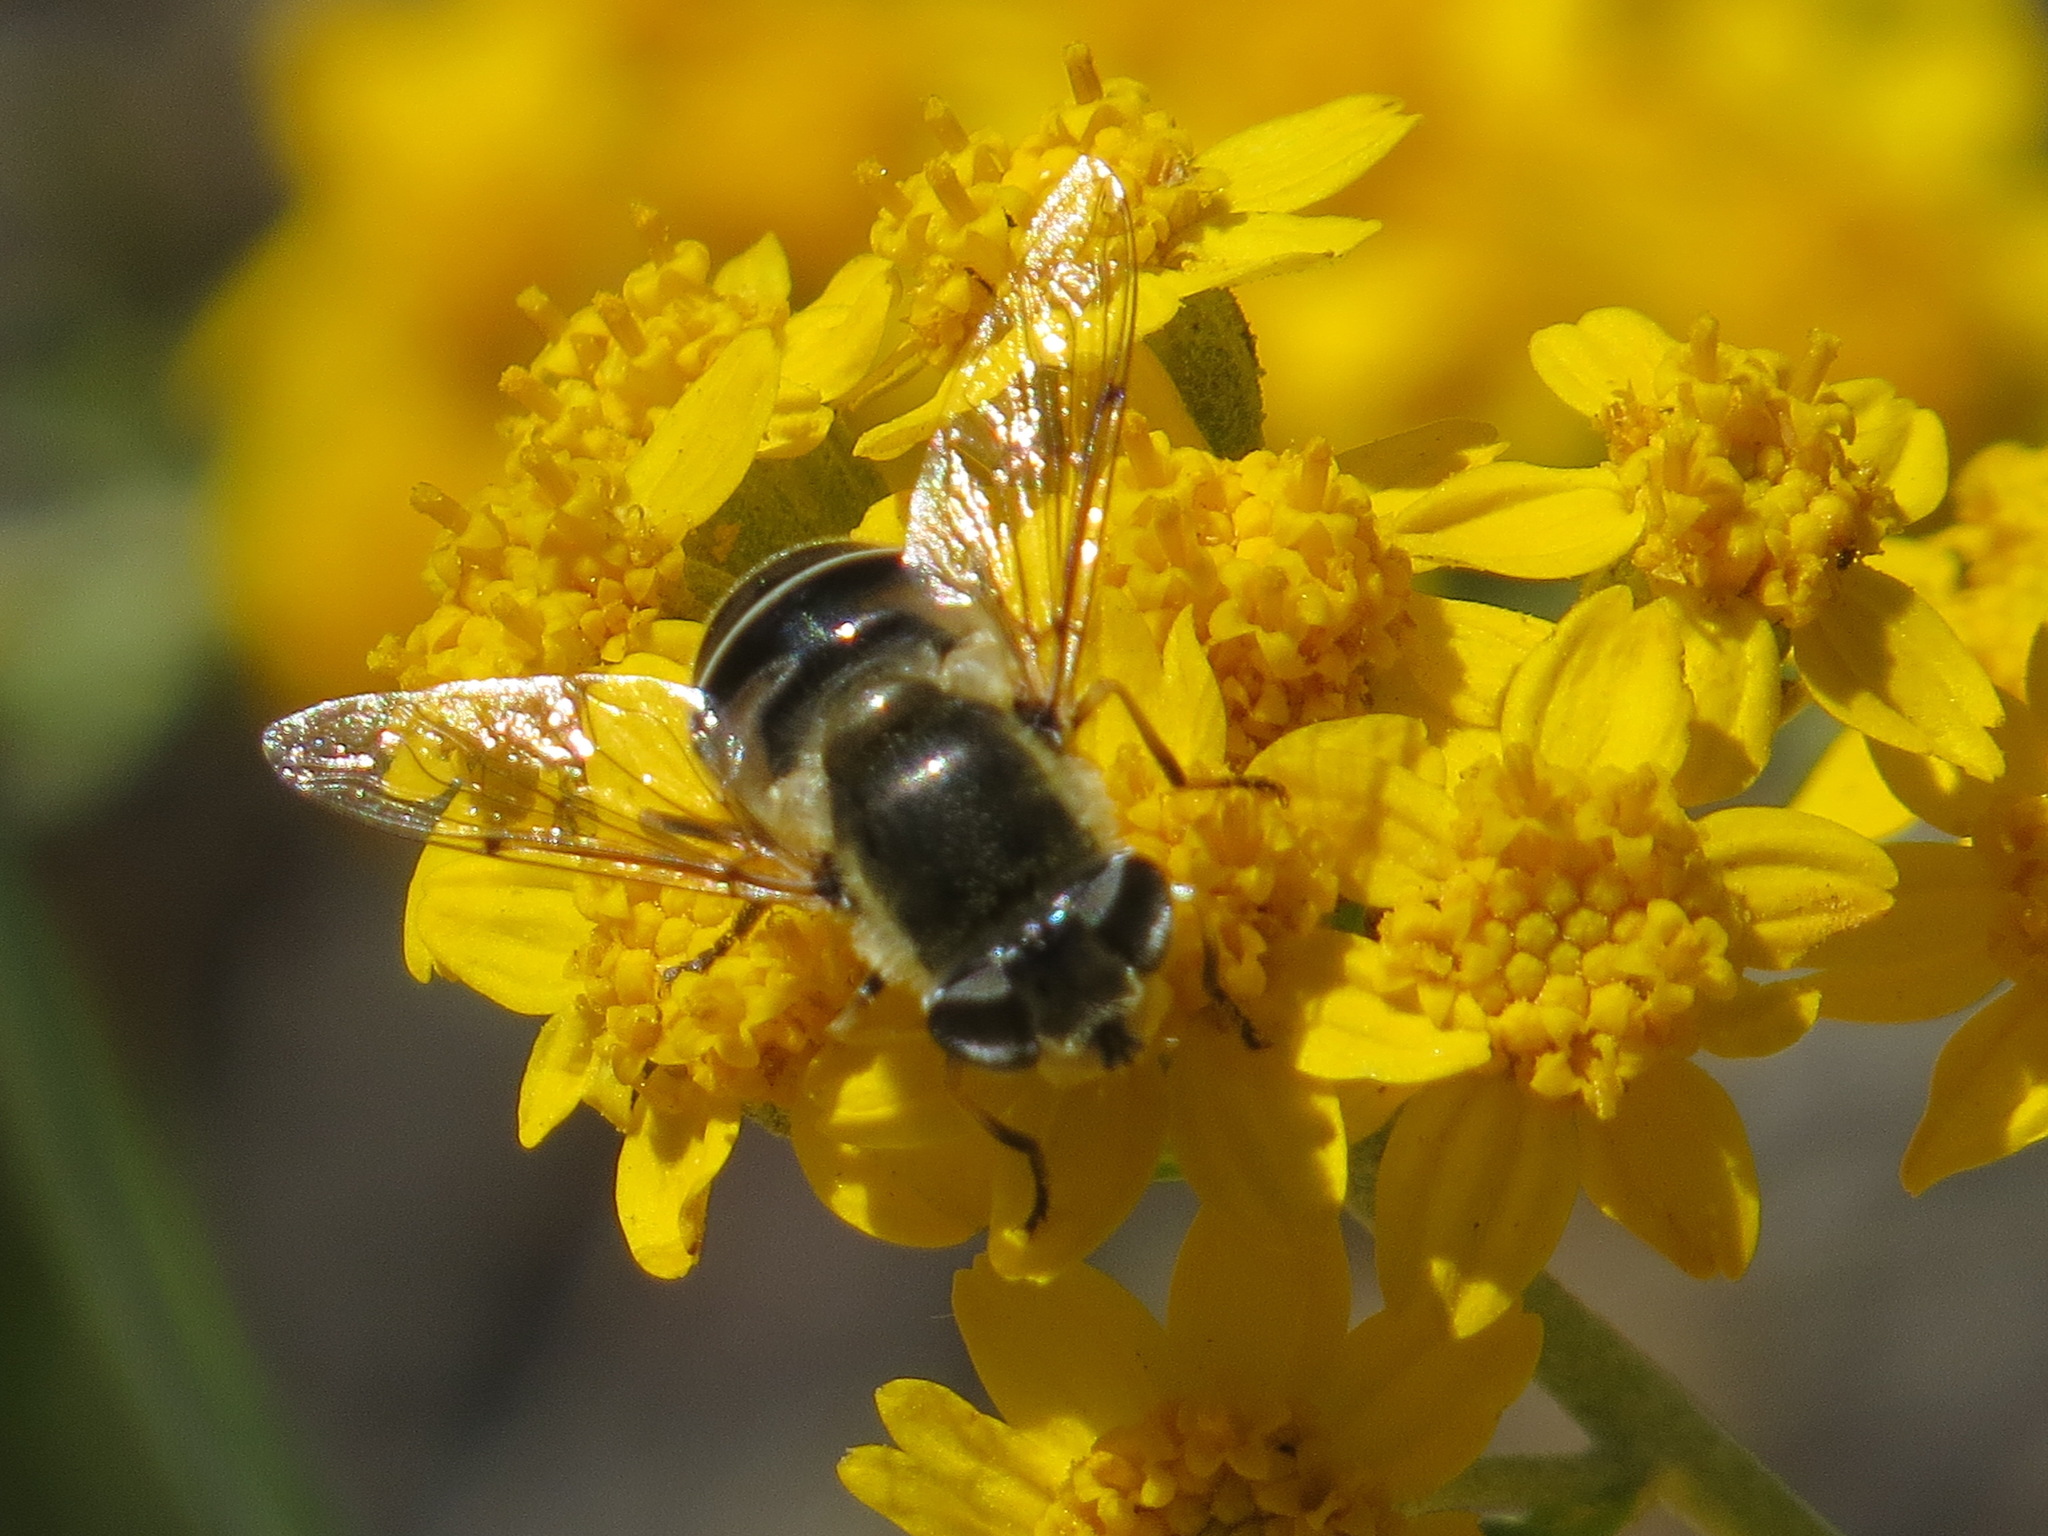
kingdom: Animalia
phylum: Arthropoda
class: Insecta
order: Diptera
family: Syrphidae
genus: Eristalis
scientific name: Eristalis hirta
